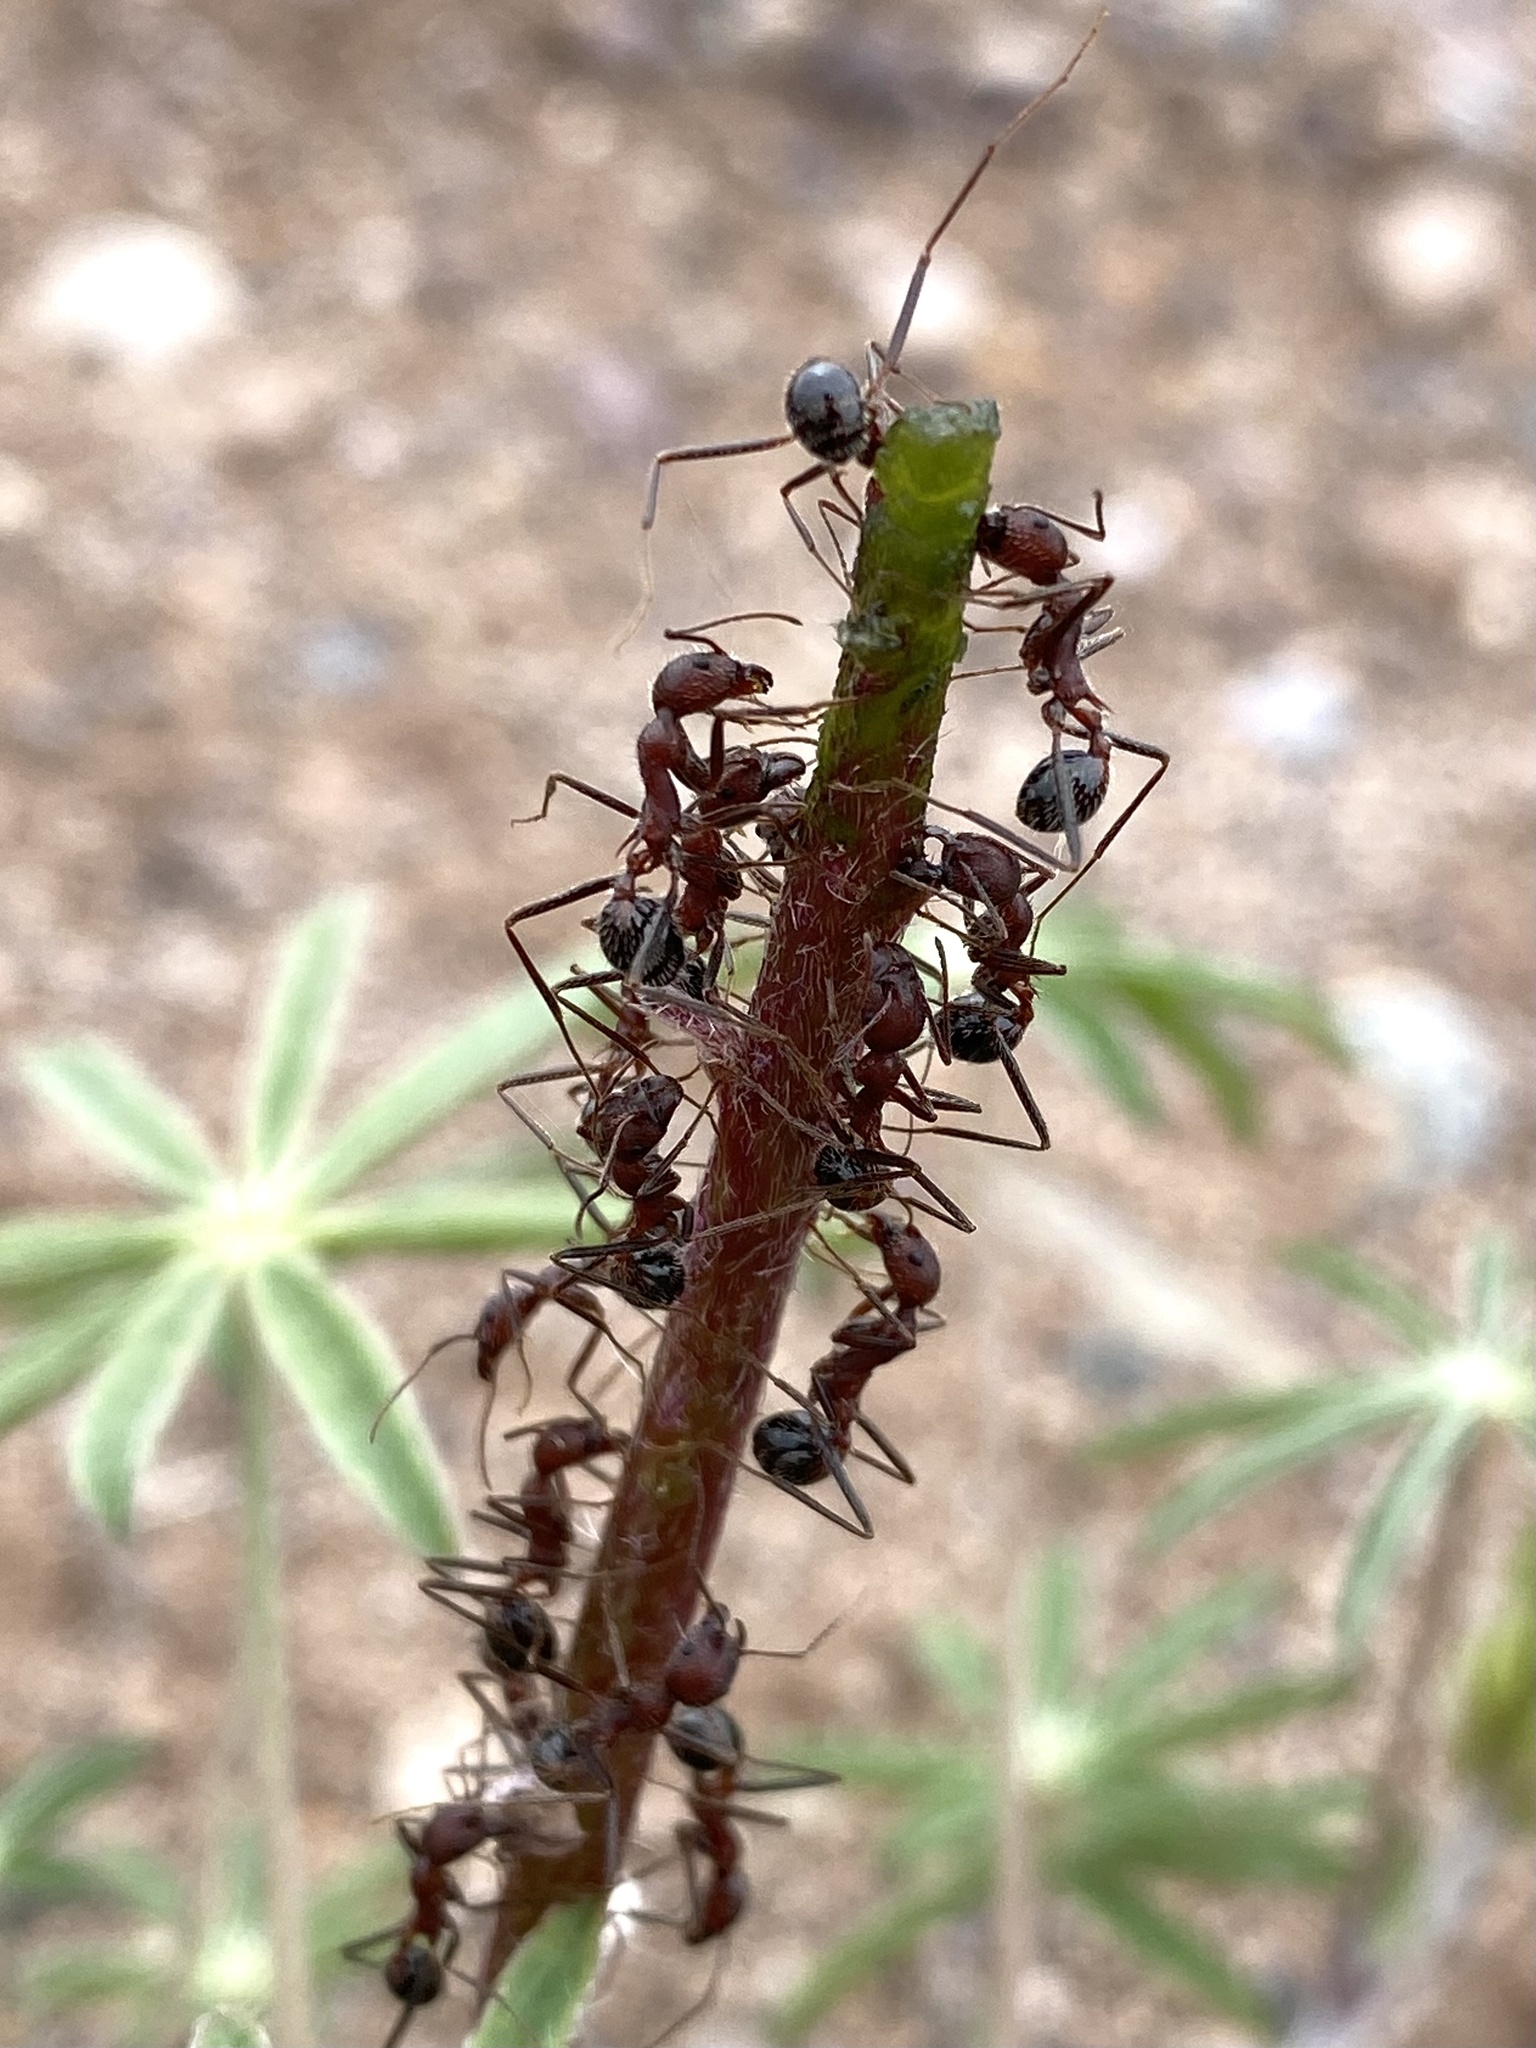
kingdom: Animalia
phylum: Arthropoda
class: Insecta
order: Hymenoptera
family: Formicidae
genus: Novomessor
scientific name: Novomessor albisetosa
